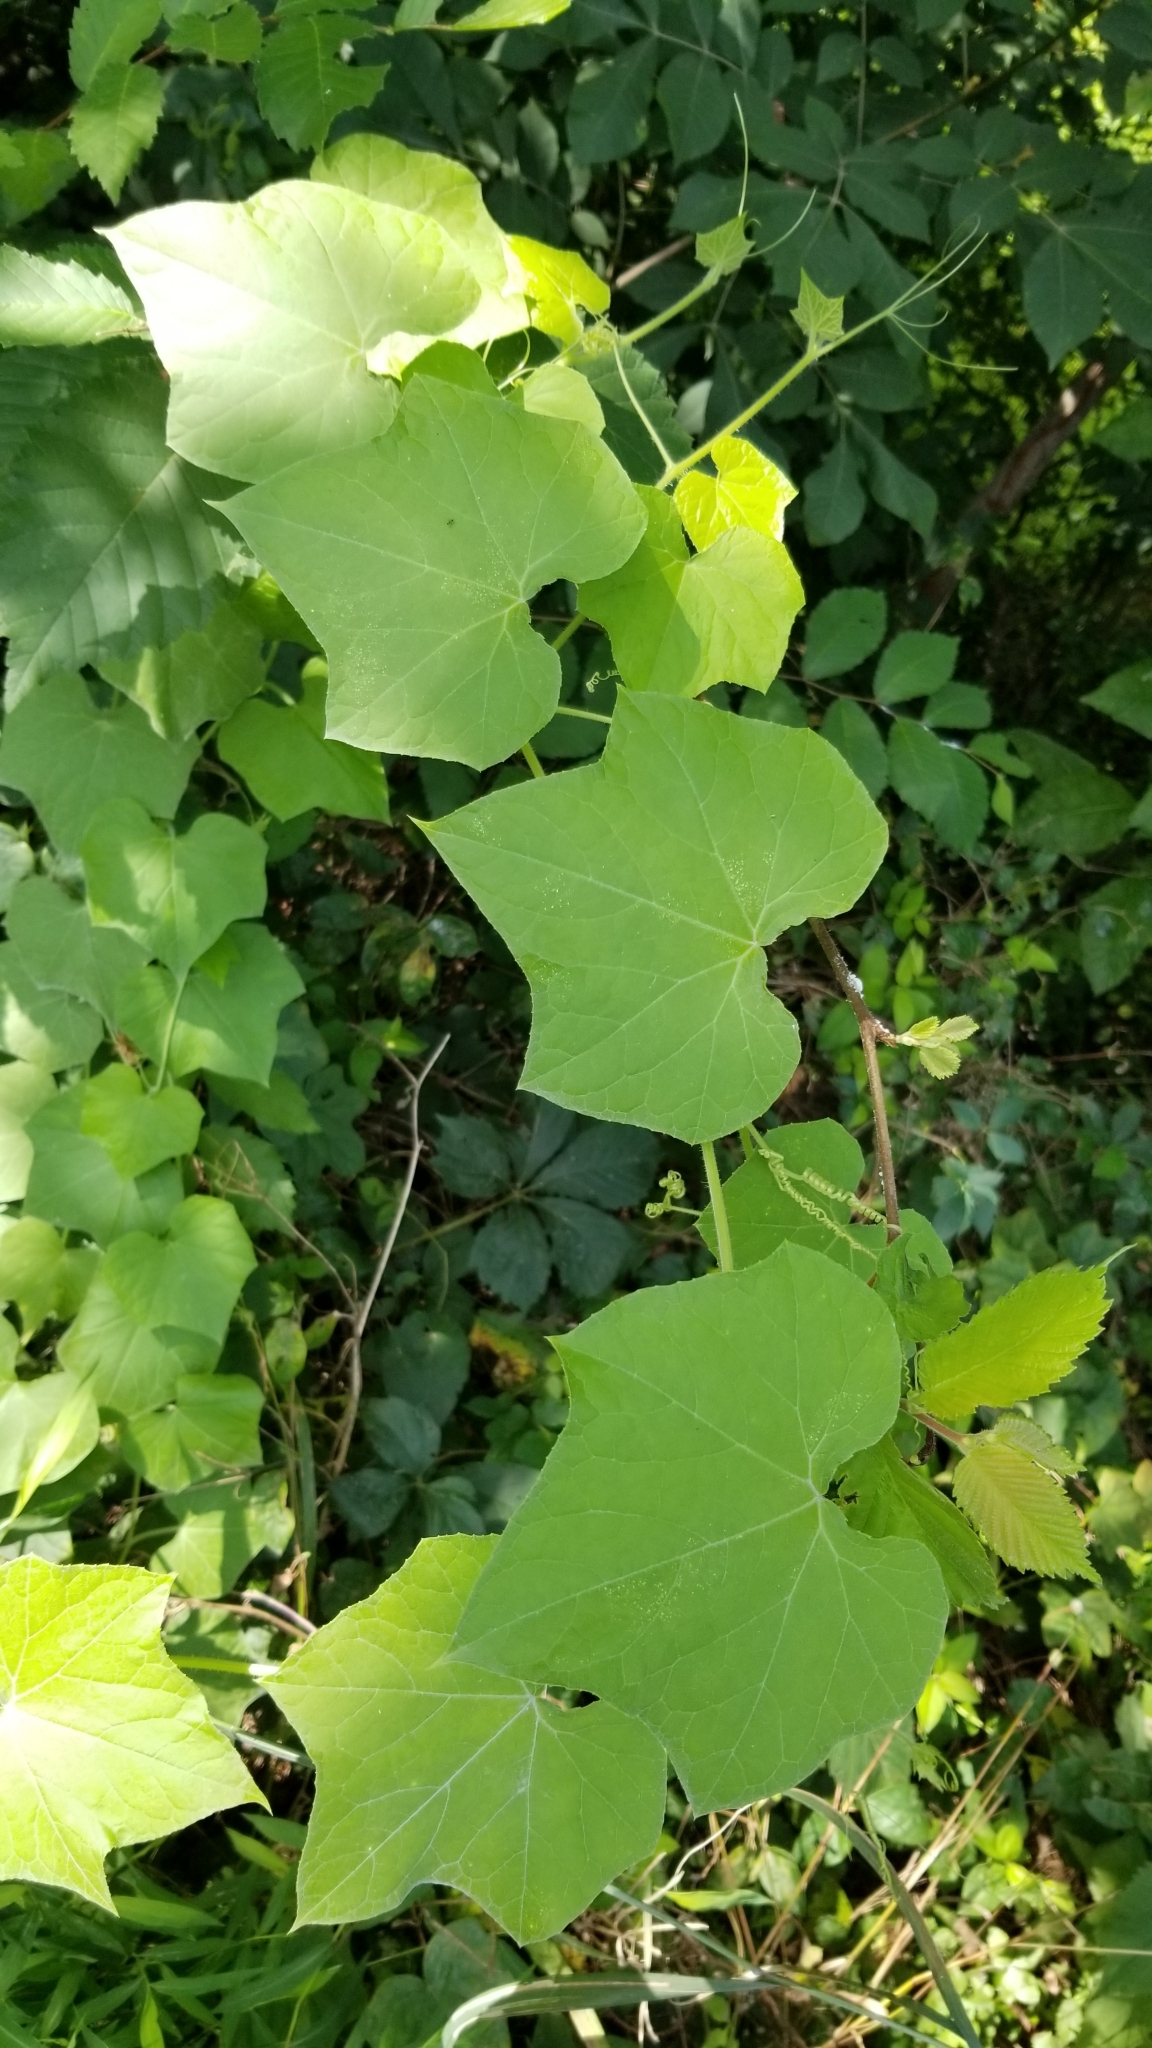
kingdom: Plantae
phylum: Tracheophyta
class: Magnoliopsida
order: Cucurbitales
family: Cucurbitaceae
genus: Sicyos
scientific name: Sicyos angulatus
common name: Angled burr cucumber
